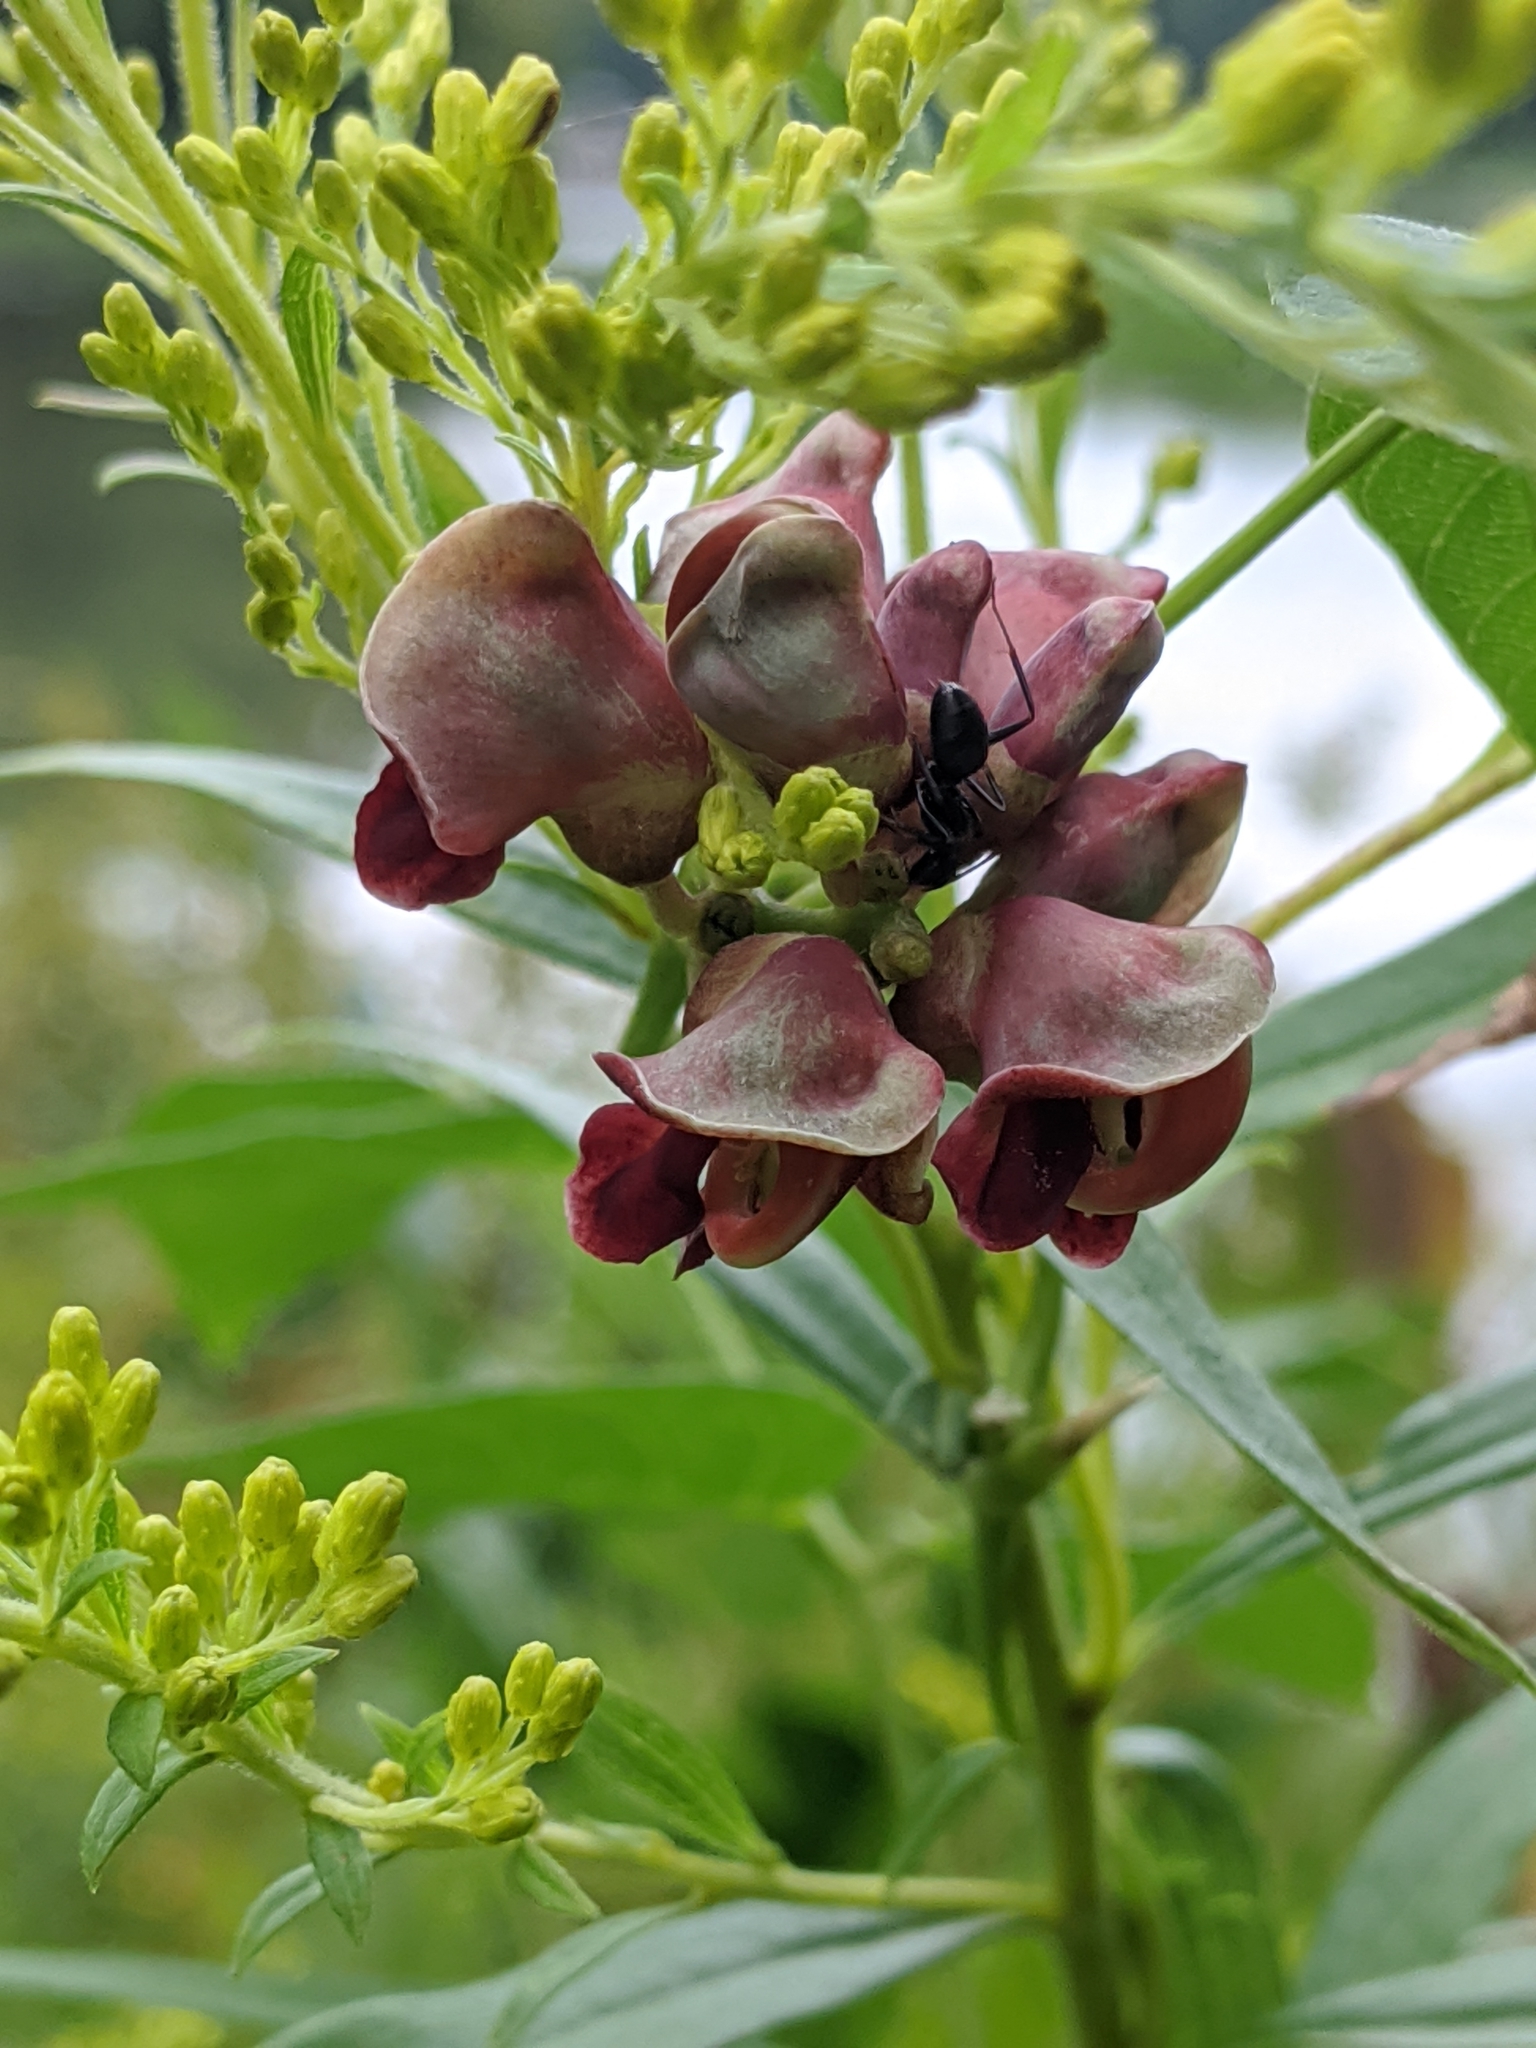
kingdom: Plantae
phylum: Tracheophyta
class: Magnoliopsida
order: Fabales
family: Fabaceae
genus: Apios
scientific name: Apios americana
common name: American potato-bean
